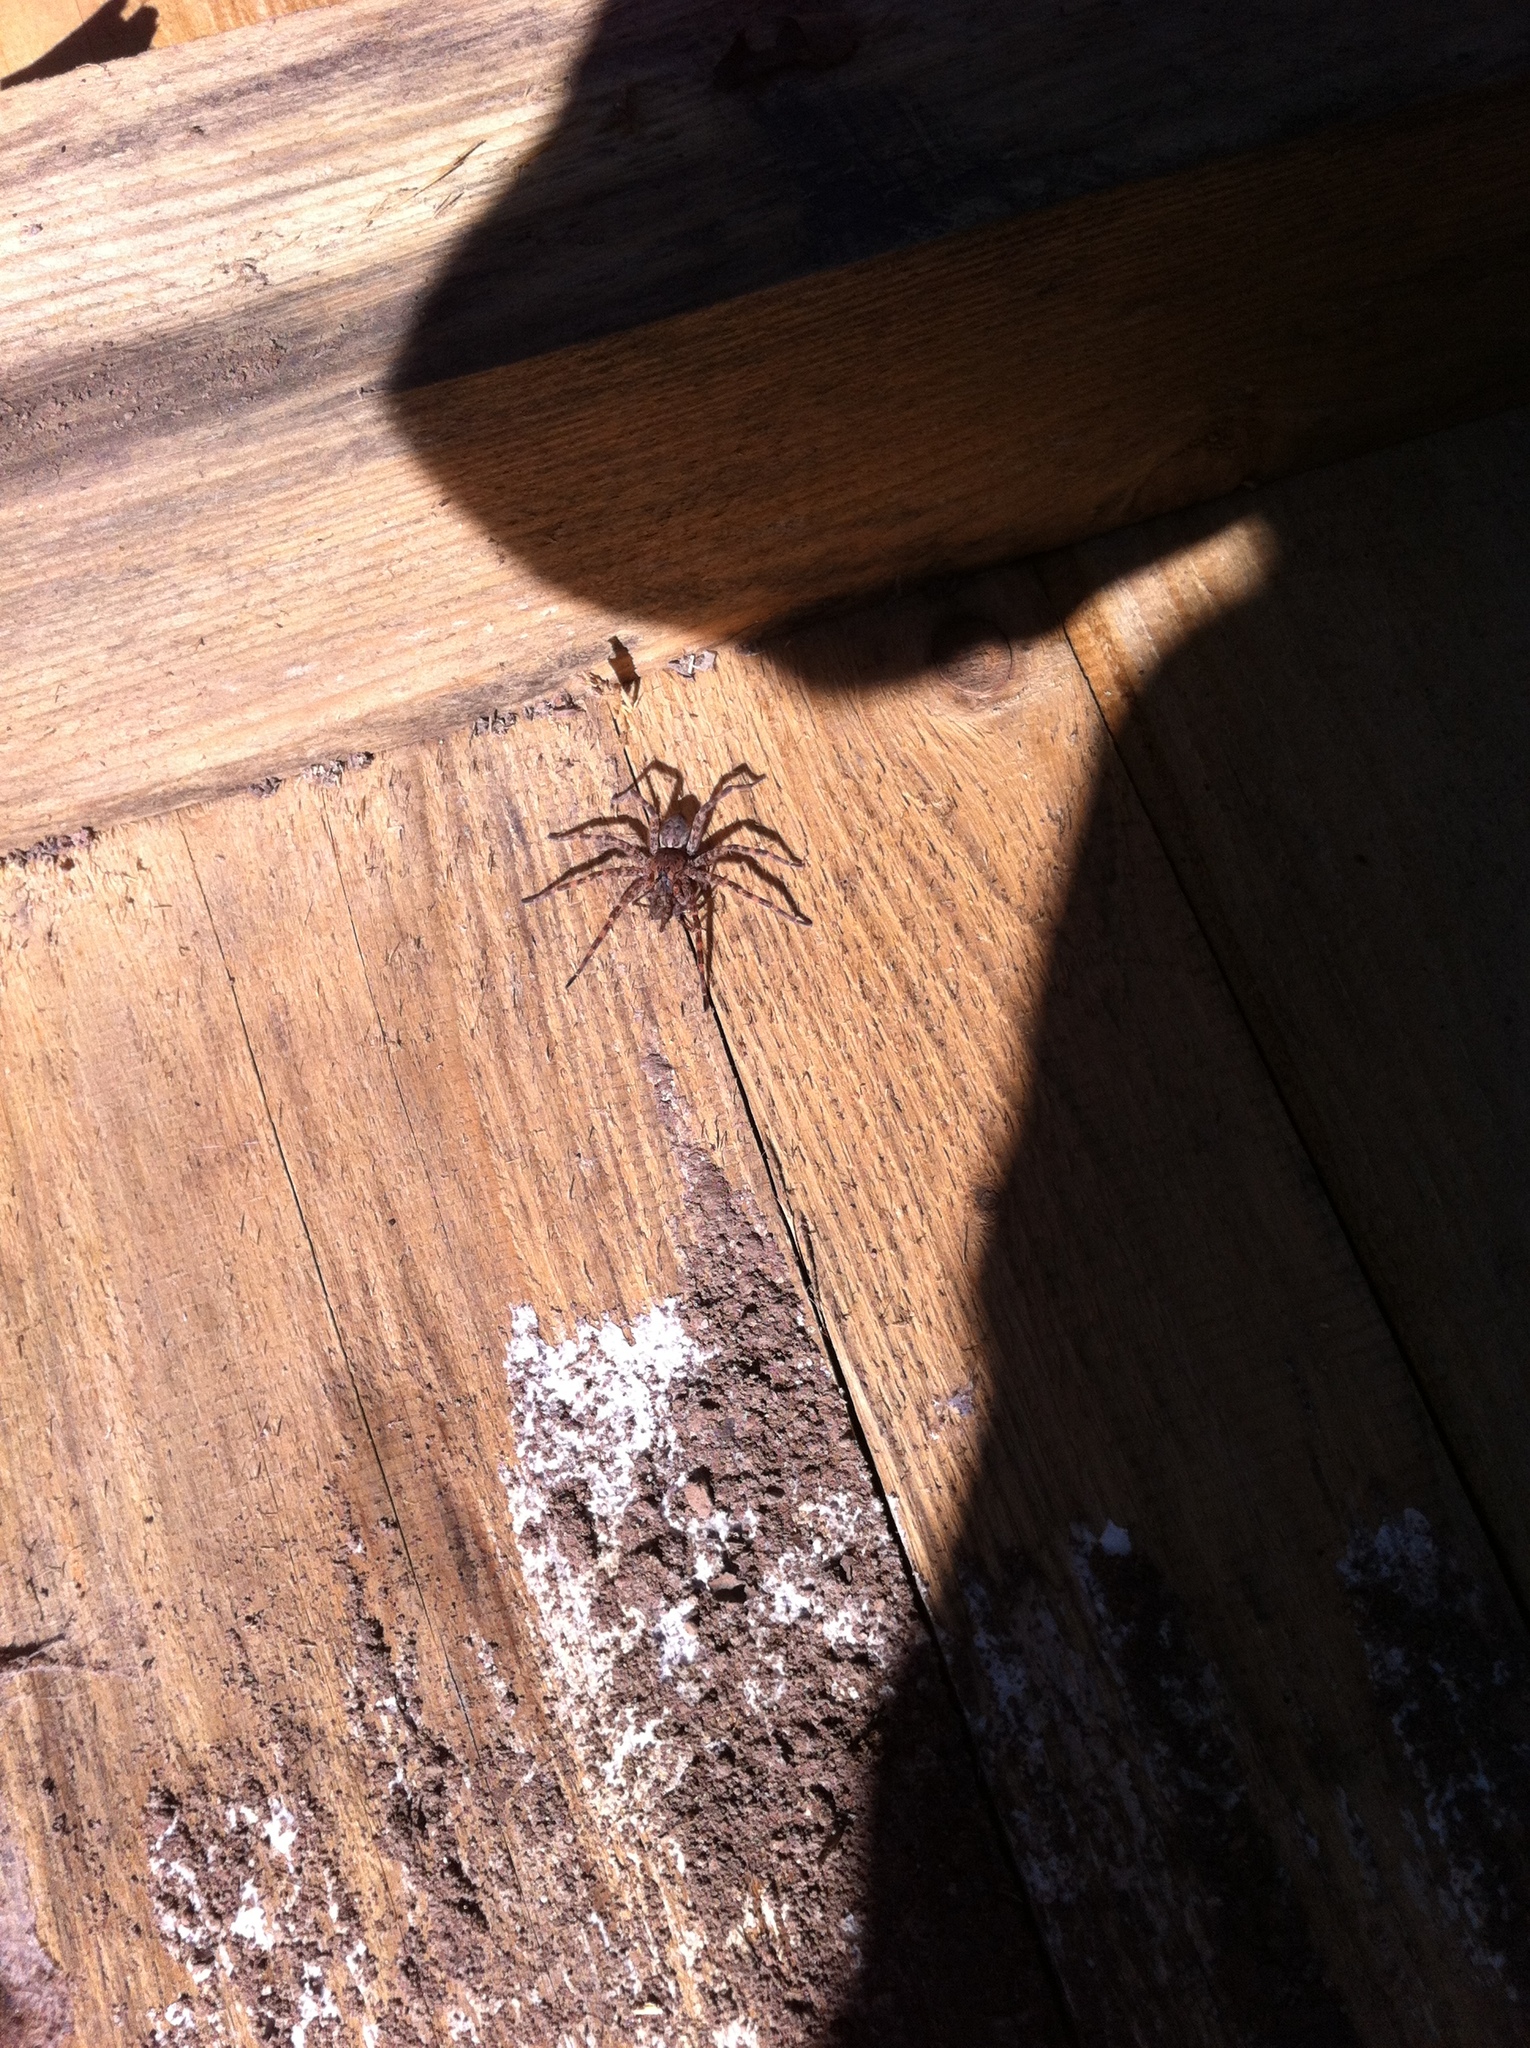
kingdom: Animalia
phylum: Arthropoda
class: Arachnida
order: Araneae
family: Pisauridae
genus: Dolomedes
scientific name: Dolomedes tenebrosus
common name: Dark fishing spider
